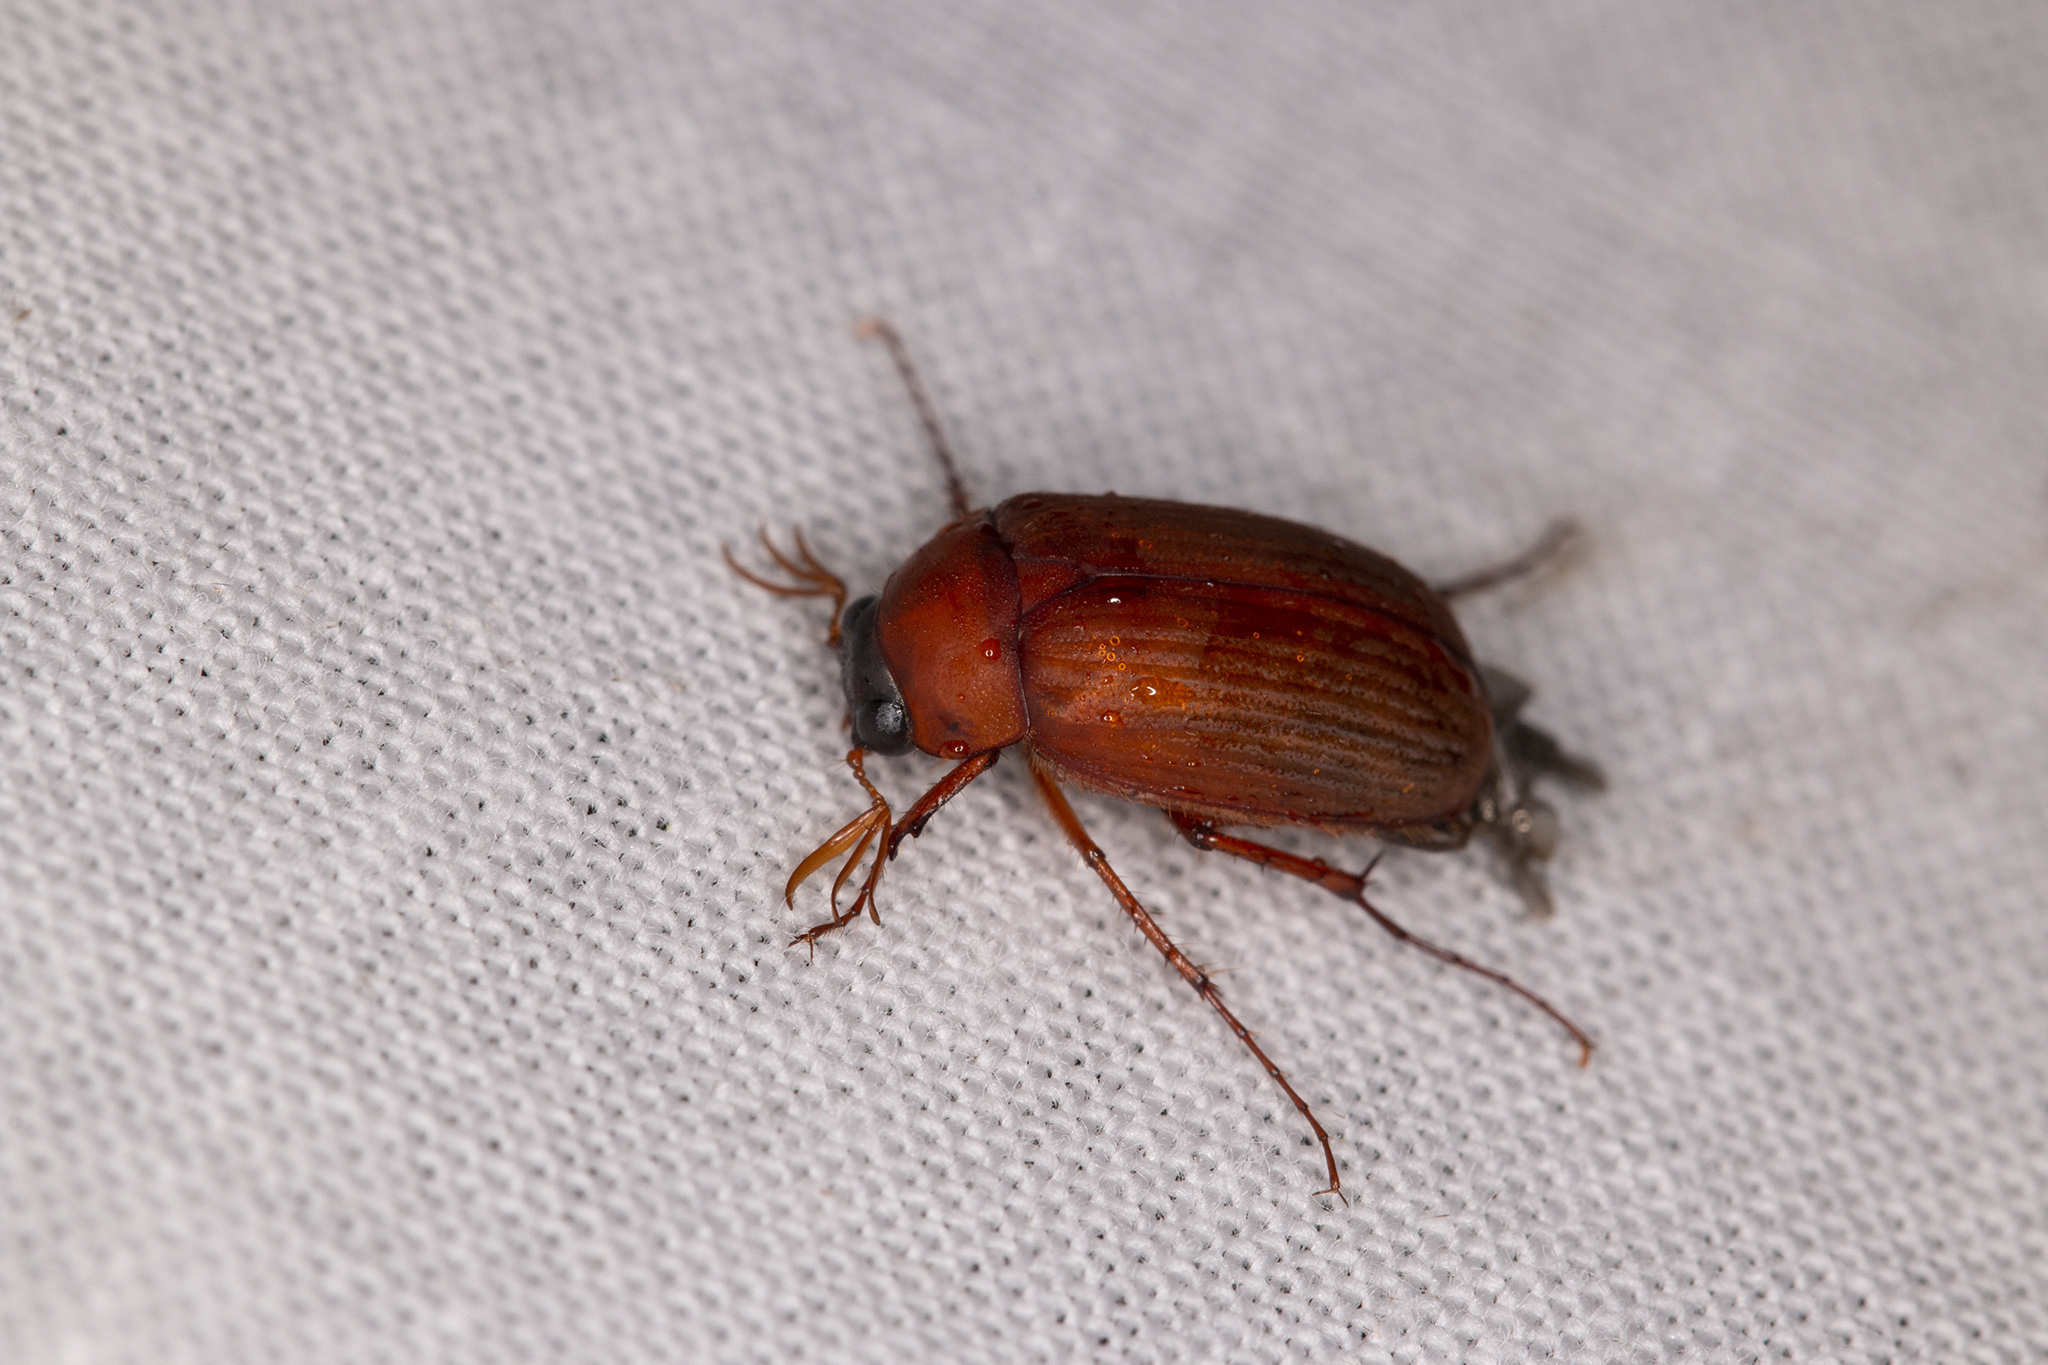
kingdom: Animalia
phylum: Arthropoda
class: Insecta
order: Coleoptera
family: Scarabaeidae
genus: Serica
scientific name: Serica brunnea
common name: Brown chafer
